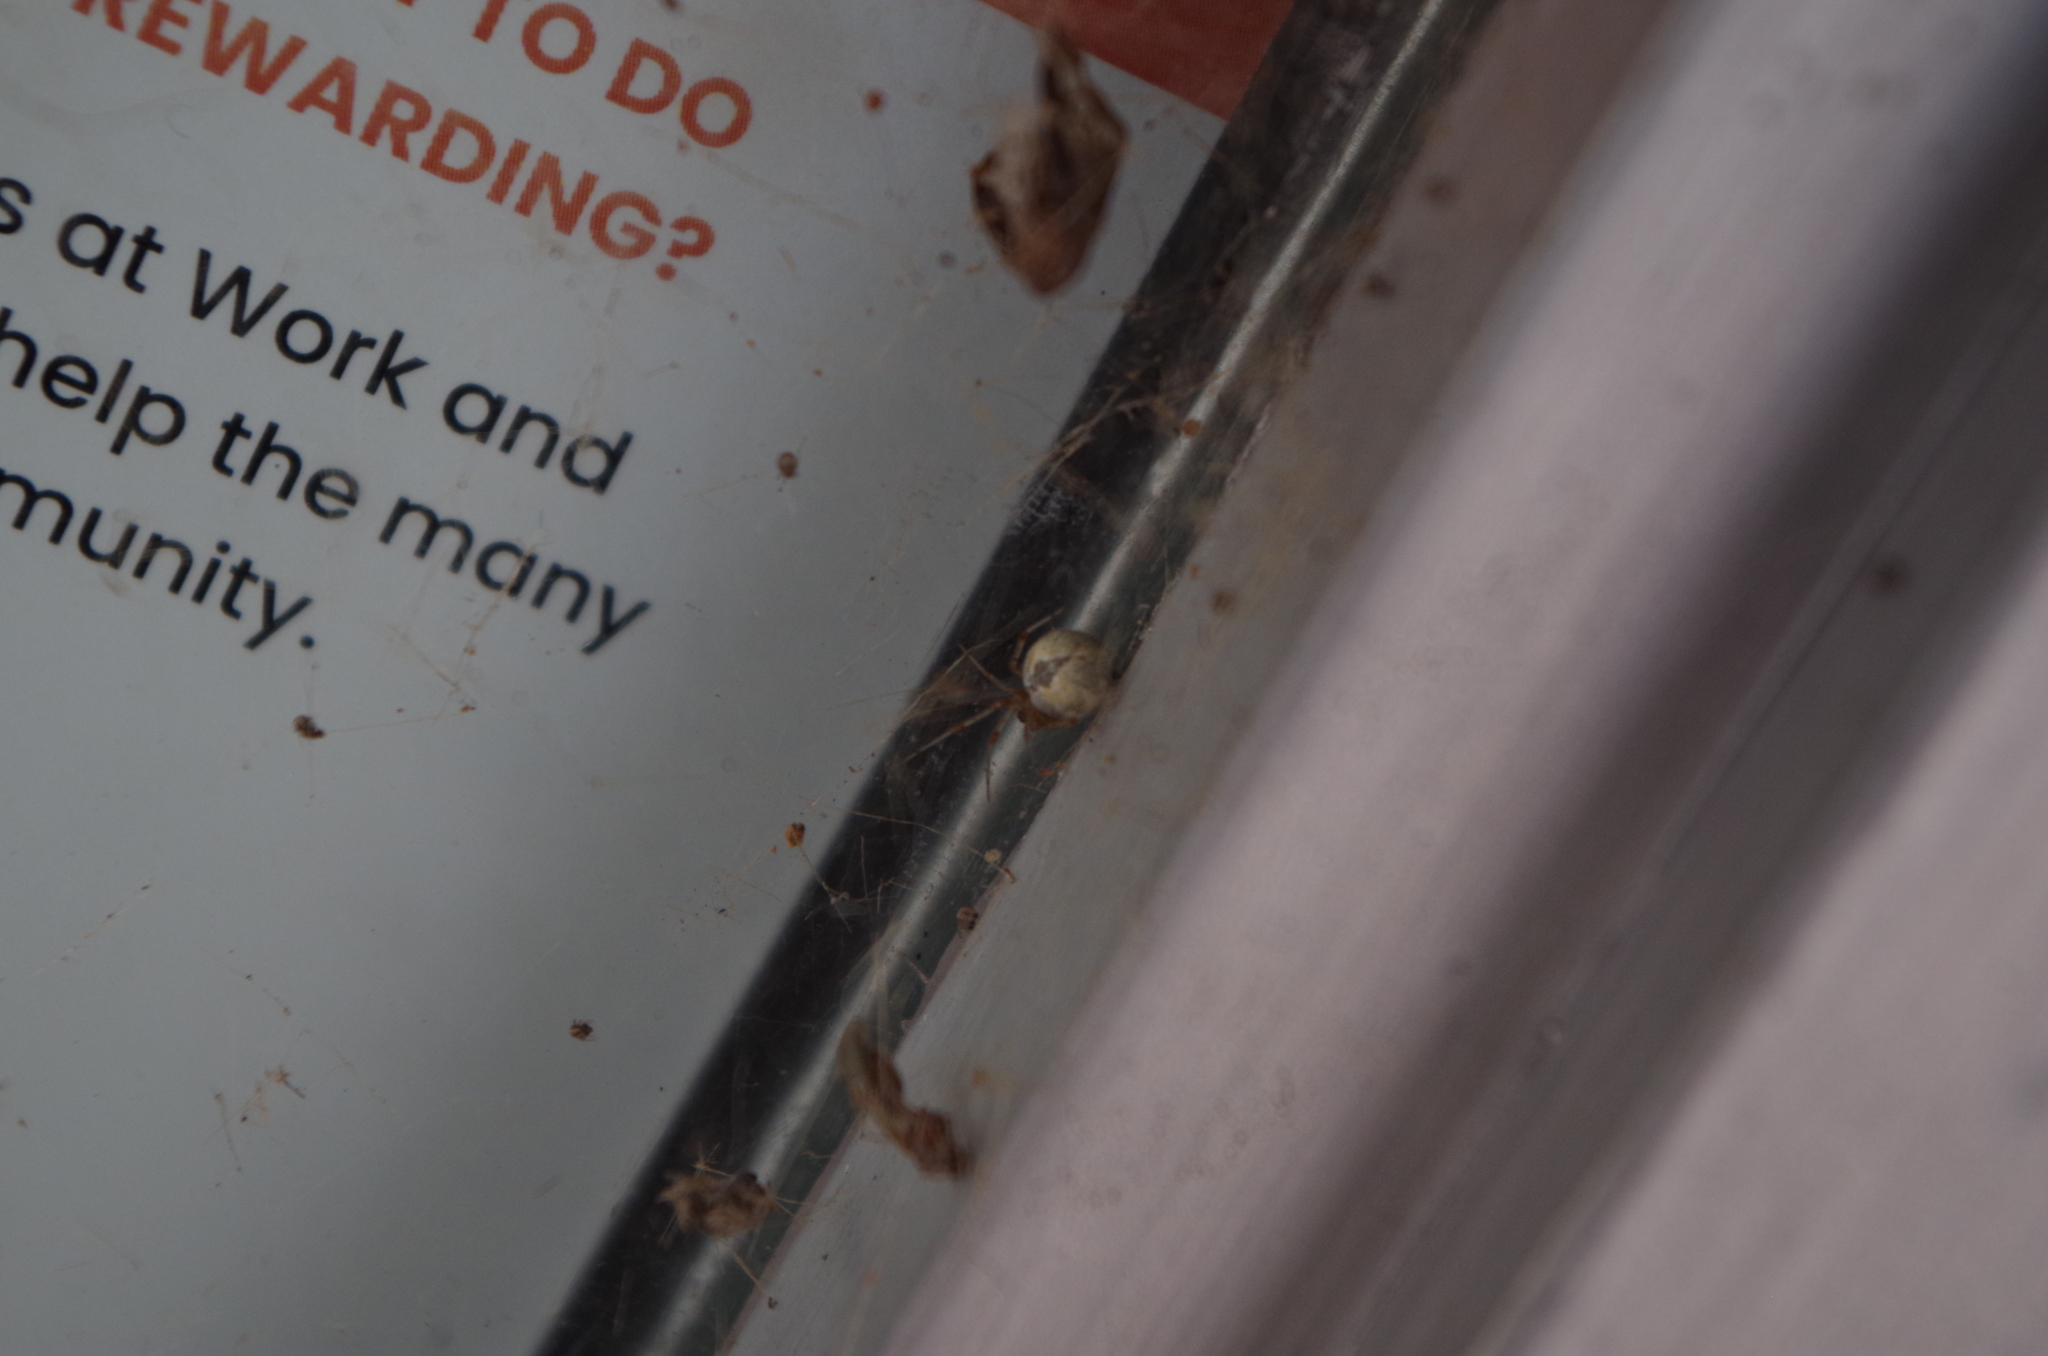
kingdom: Animalia
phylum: Arthropoda
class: Arachnida
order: Araneae
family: Theridiidae
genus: Cryptachaea
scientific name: Cryptachaea veruculata
